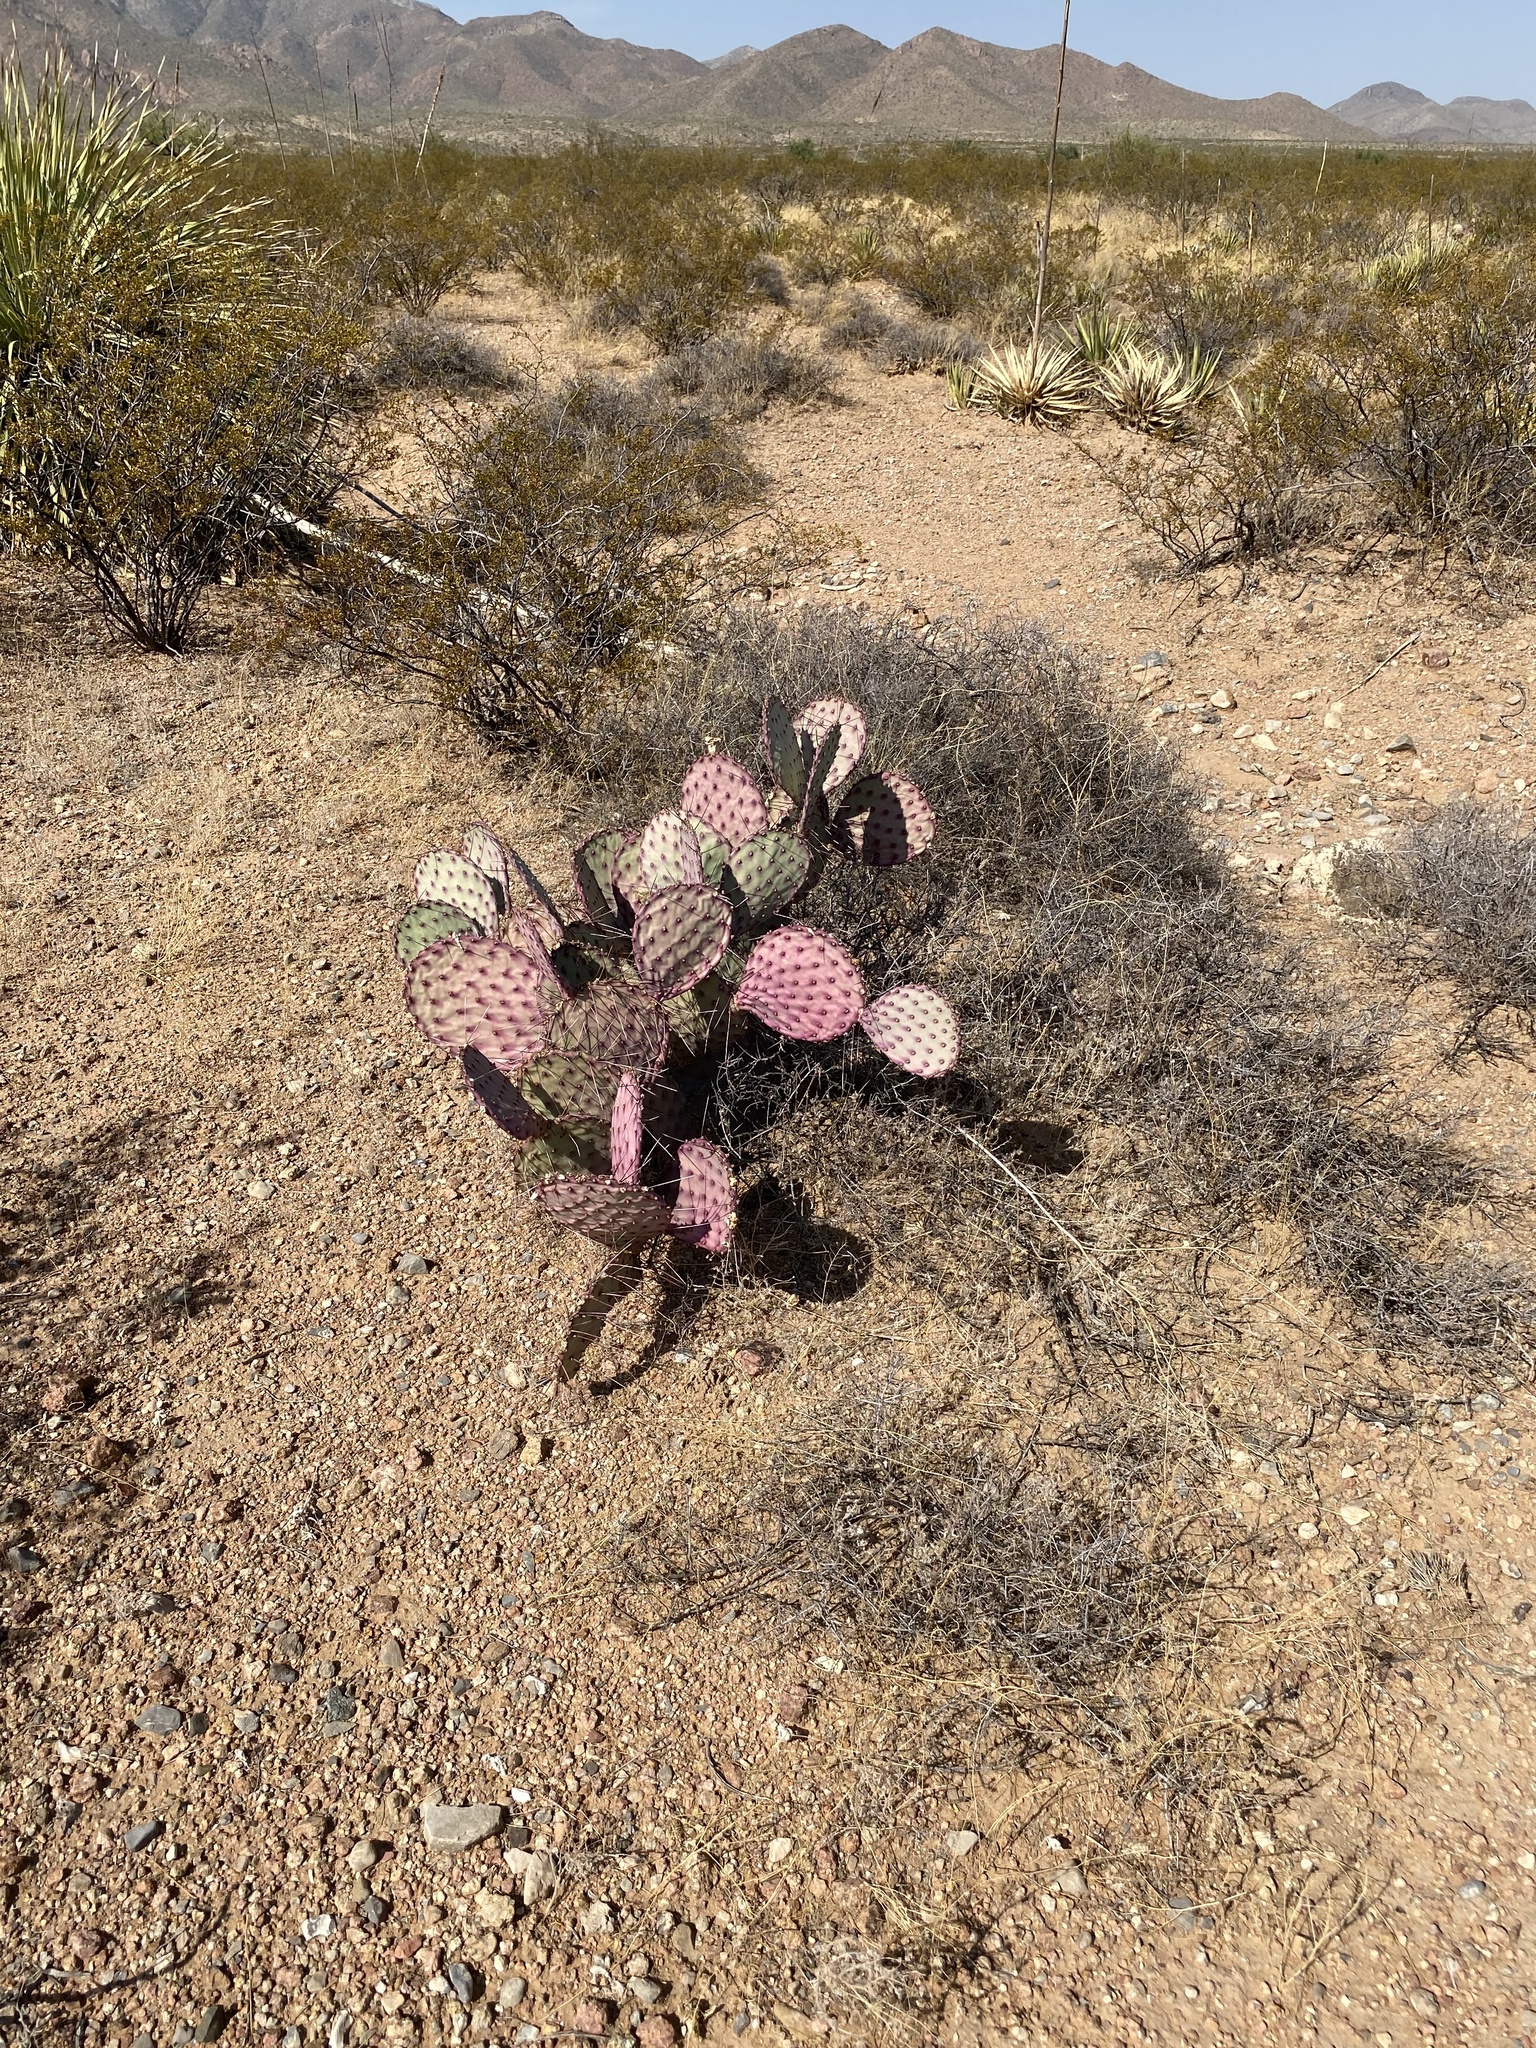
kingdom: Plantae
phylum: Tracheophyta
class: Magnoliopsida
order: Caryophyllales
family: Cactaceae
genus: Opuntia
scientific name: Opuntia macrocentra
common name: Purple prickly-pear
